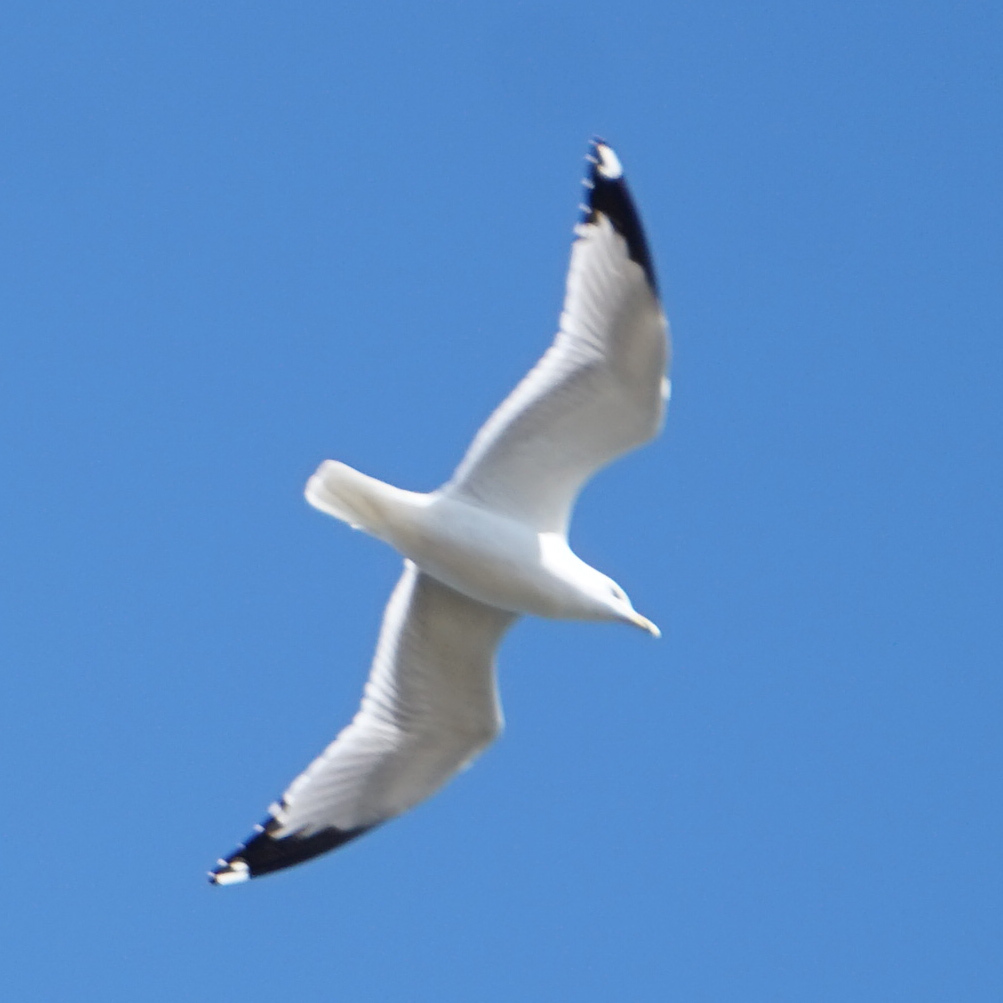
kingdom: Animalia
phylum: Chordata
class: Aves
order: Charadriiformes
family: Laridae
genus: Larus
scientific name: Larus delawarensis
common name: Ring-billed gull
